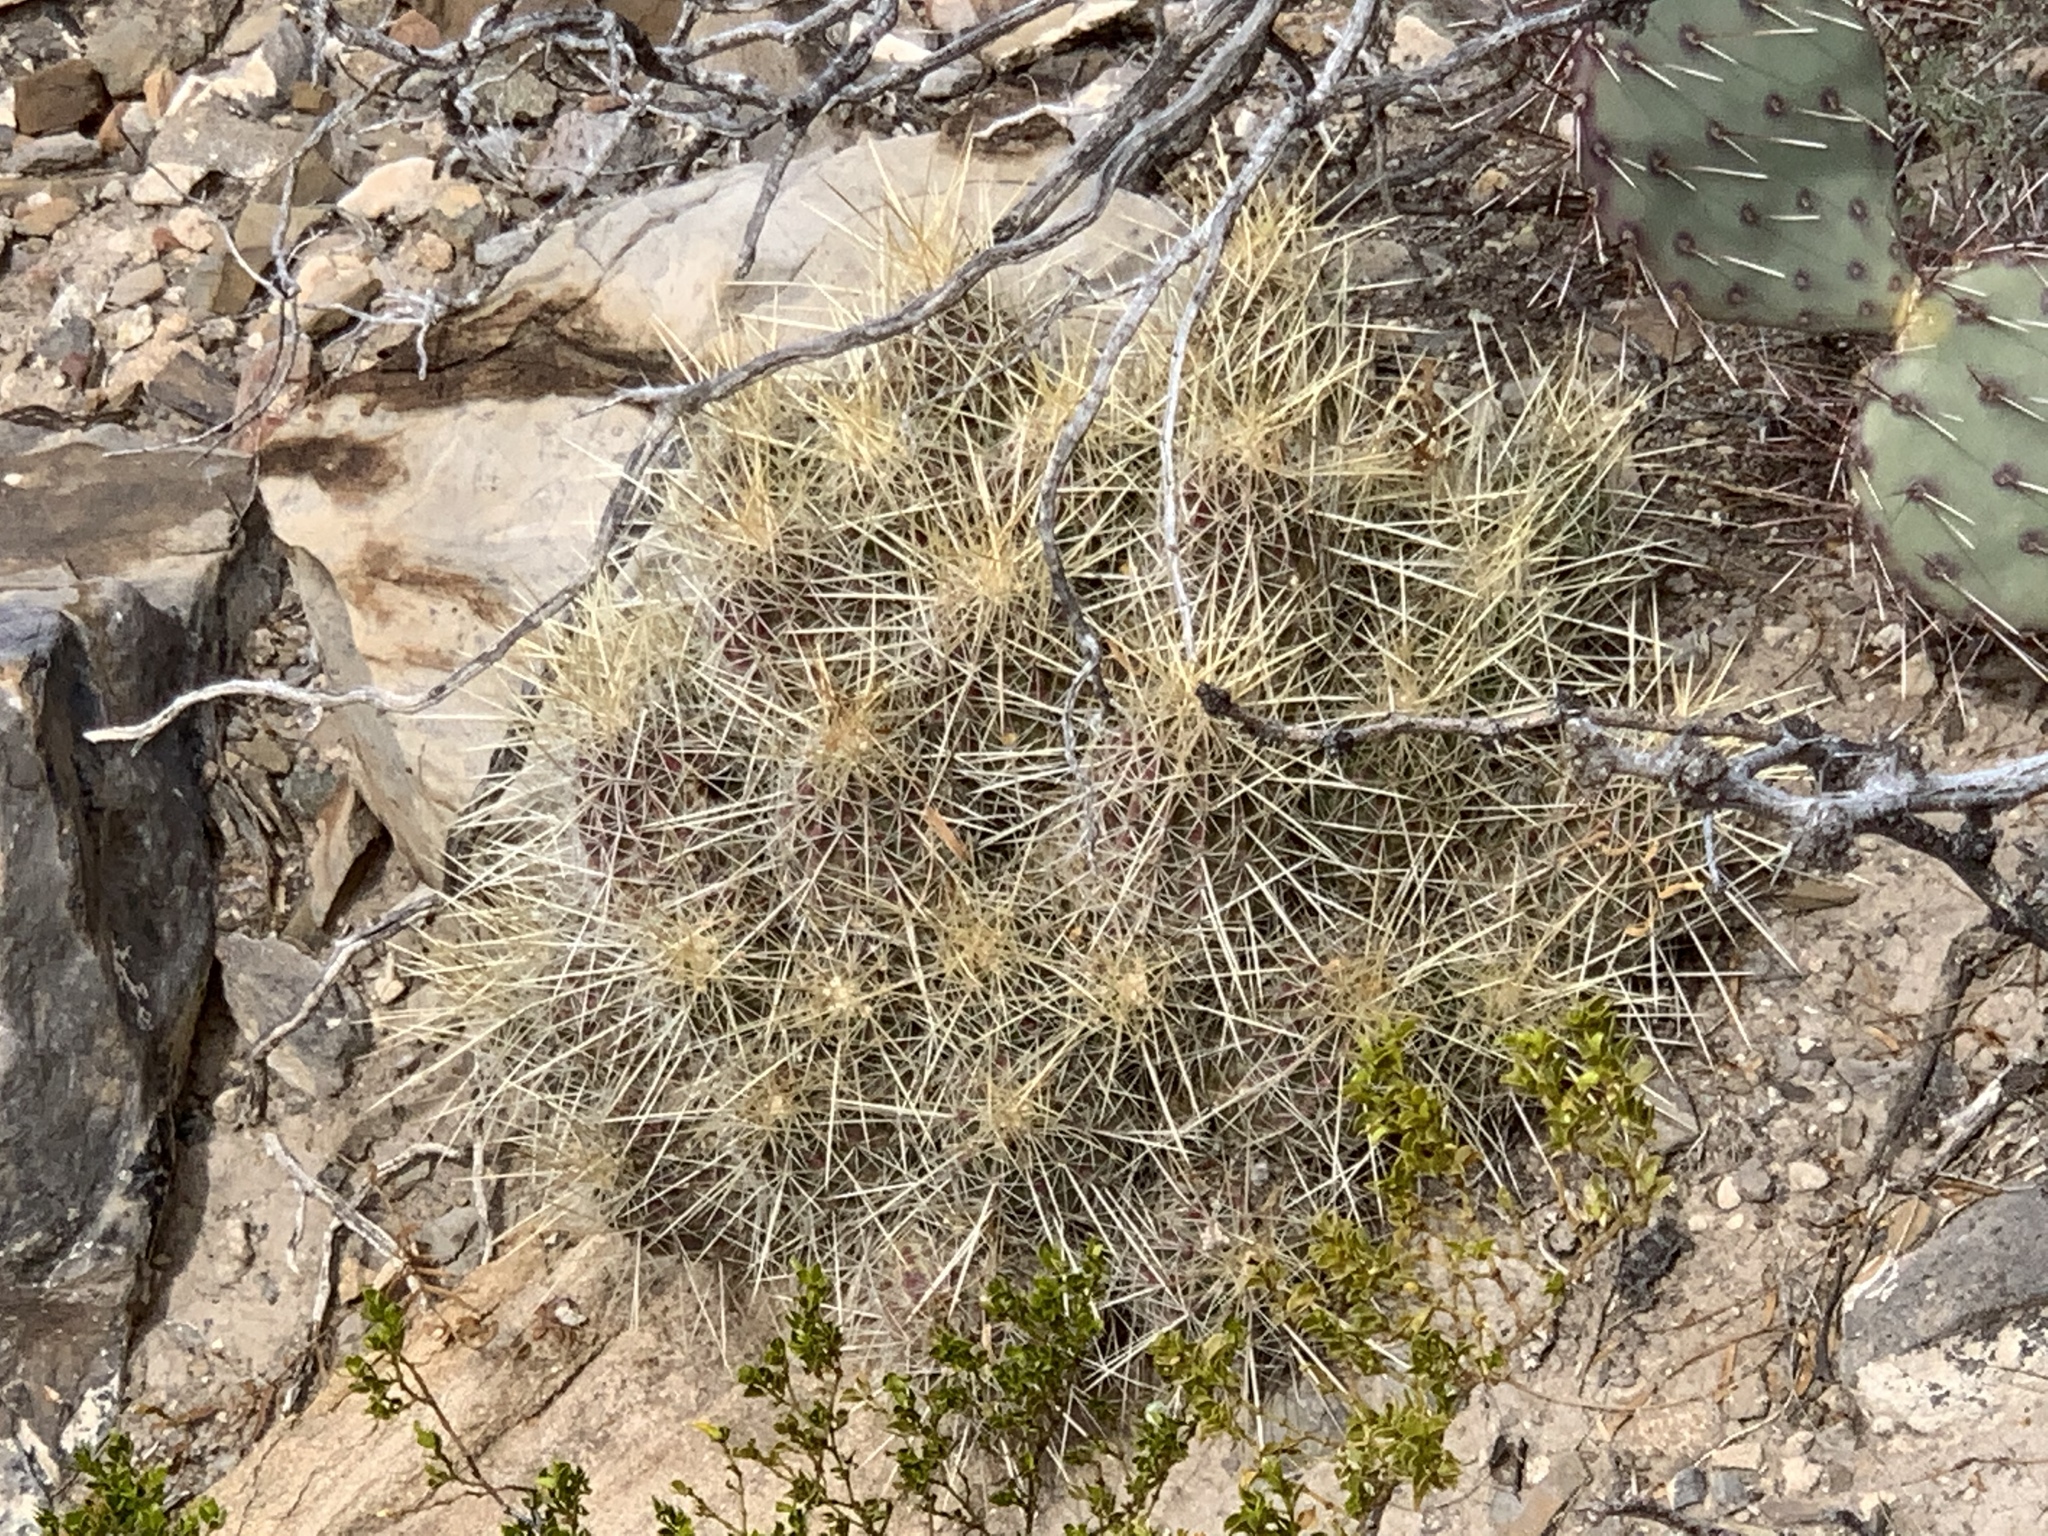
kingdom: Plantae
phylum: Tracheophyta
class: Magnoliopsida
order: Caryophyllales
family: Cactaceae
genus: Echinocereus
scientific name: Echinocereus stramineus
